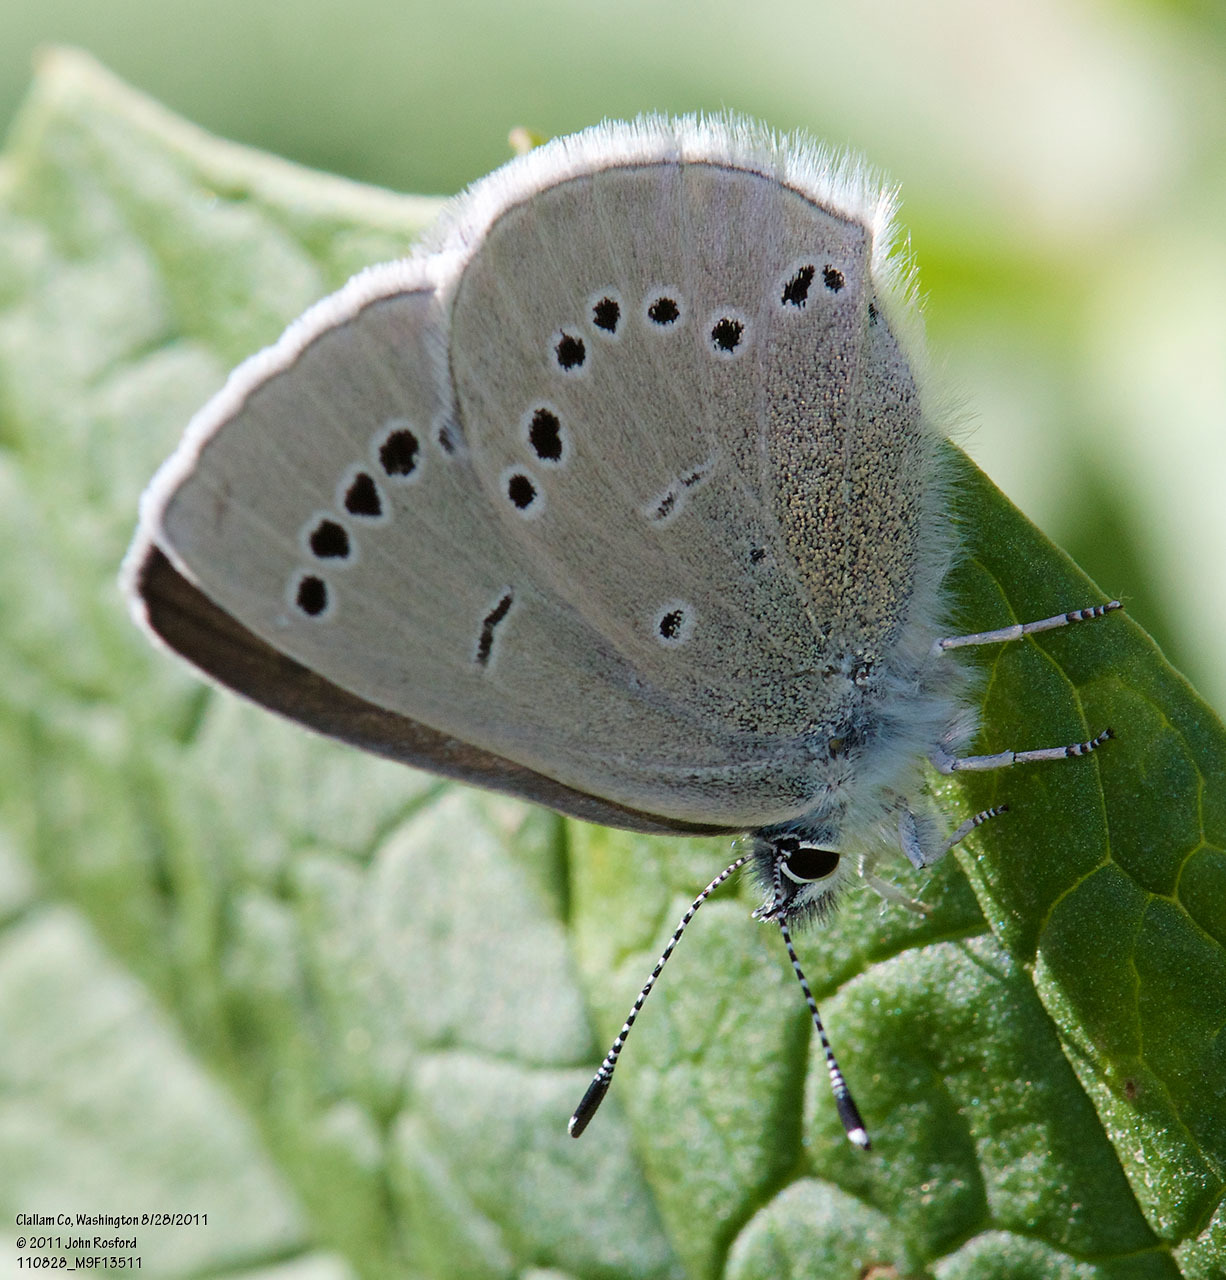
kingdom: Animalia
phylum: Arthropoda
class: Insecta
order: Lepidoptera
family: Lycaenidae
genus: Glaucopsyche
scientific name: Glaucopsyche lygdamus
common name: Silvery blue
